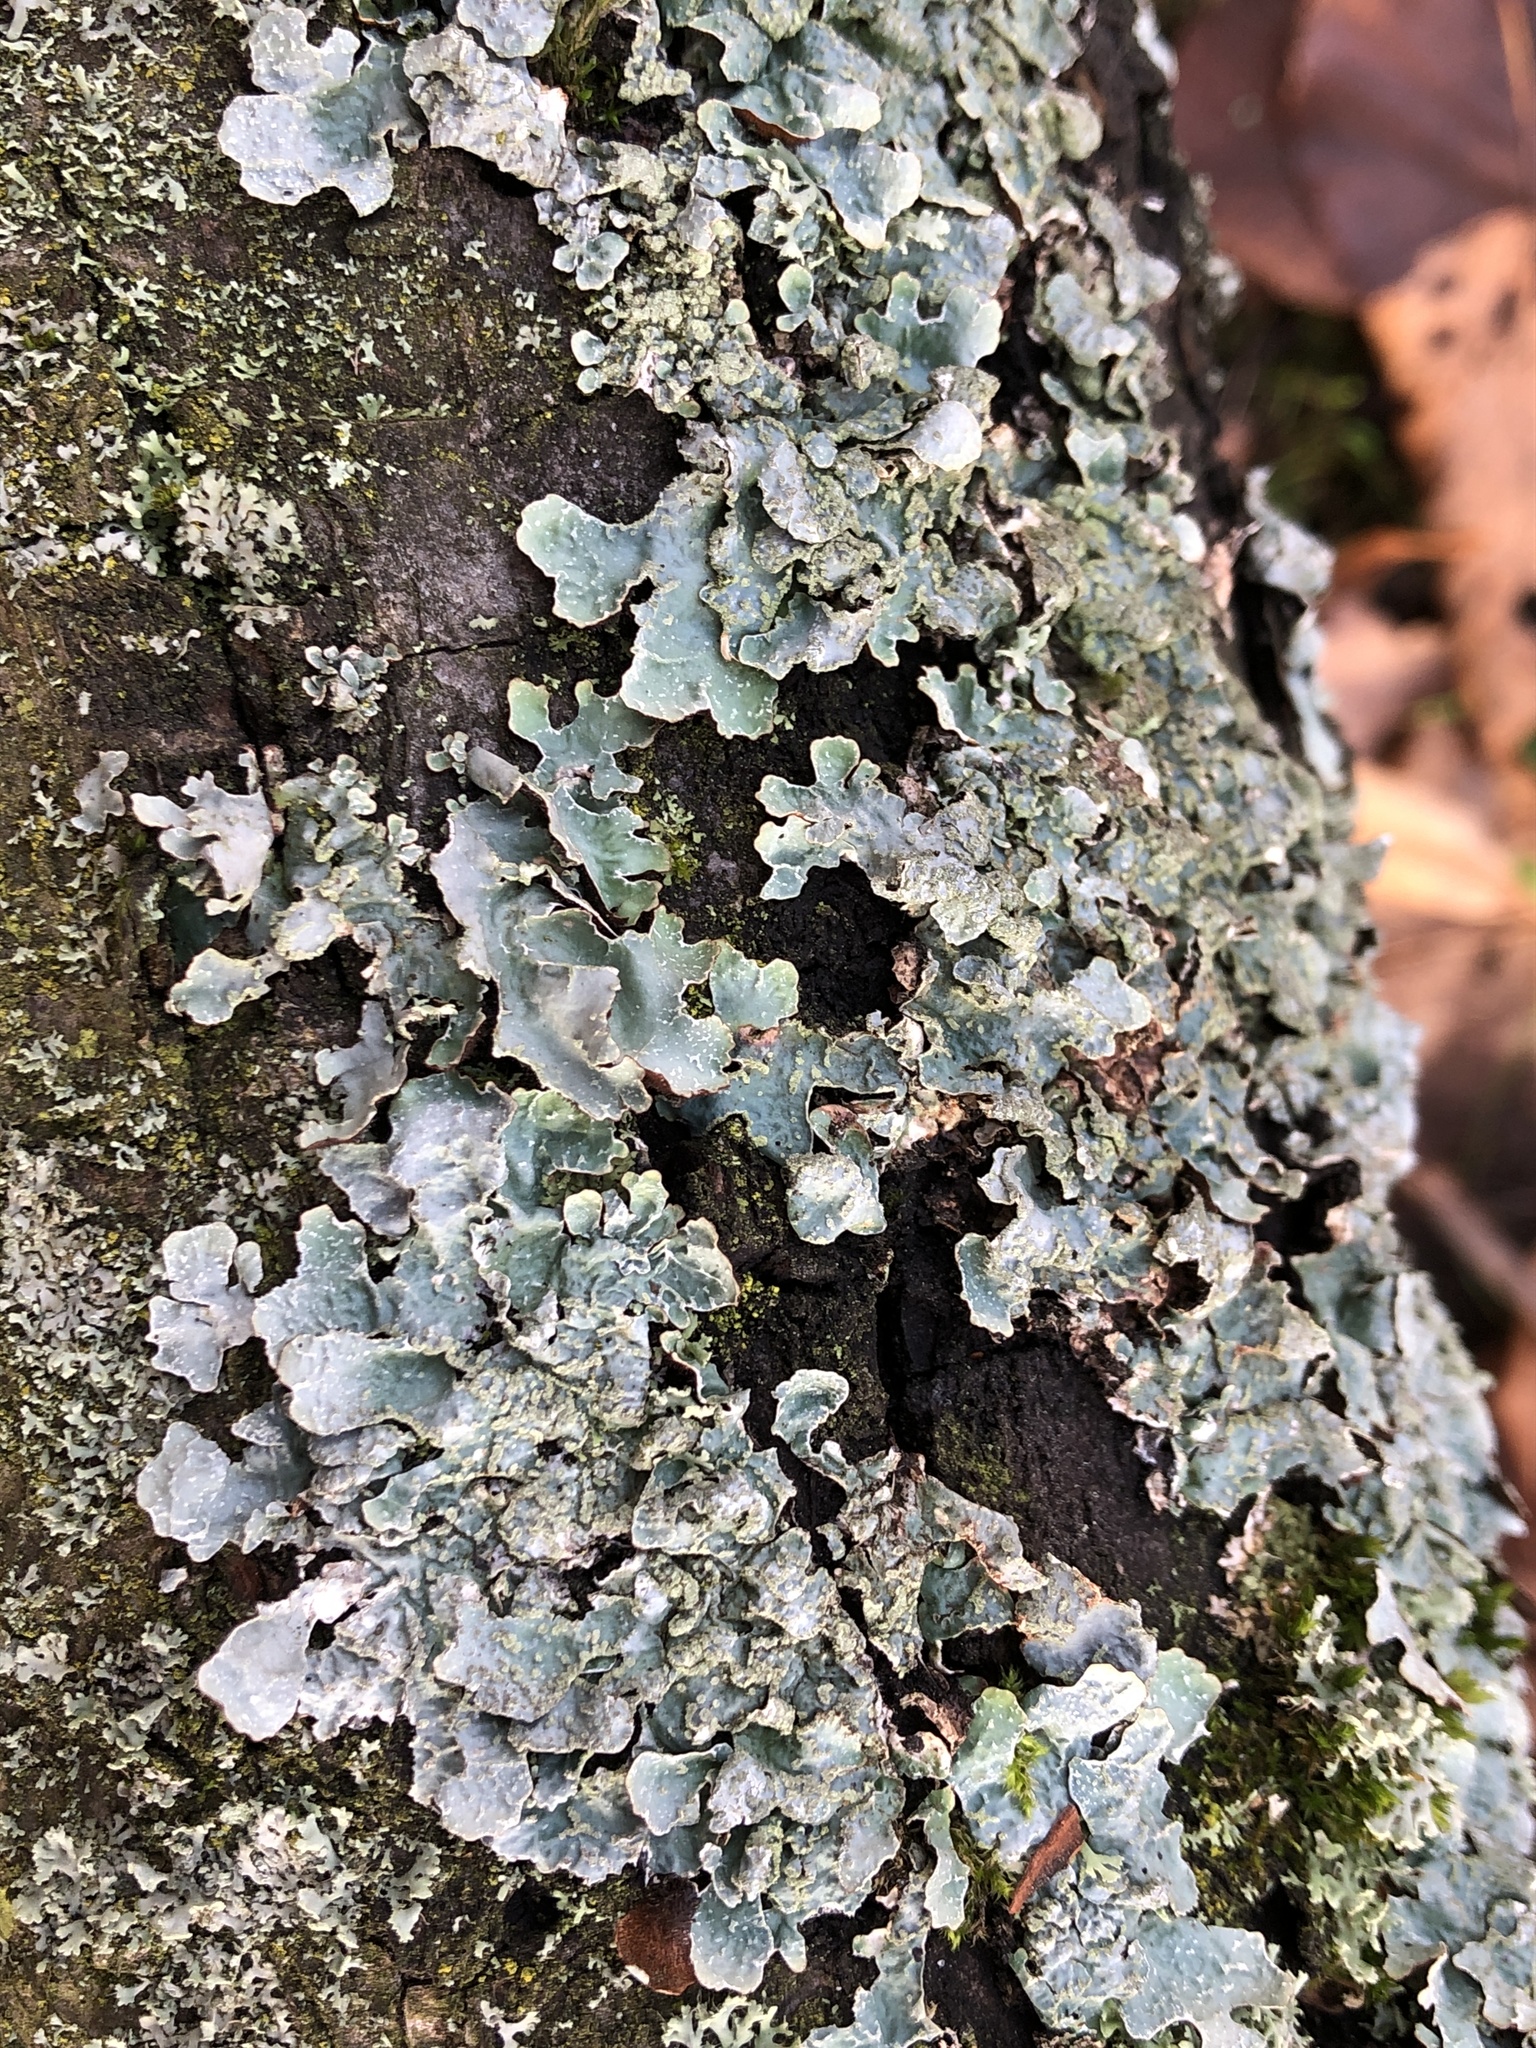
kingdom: Fungi
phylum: Ascomycota
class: Lecanoromycetes
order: Lecanorales
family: Parmeliaceae
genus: Parmelia
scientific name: Parmelia sulcata
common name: Netted shield lichen
